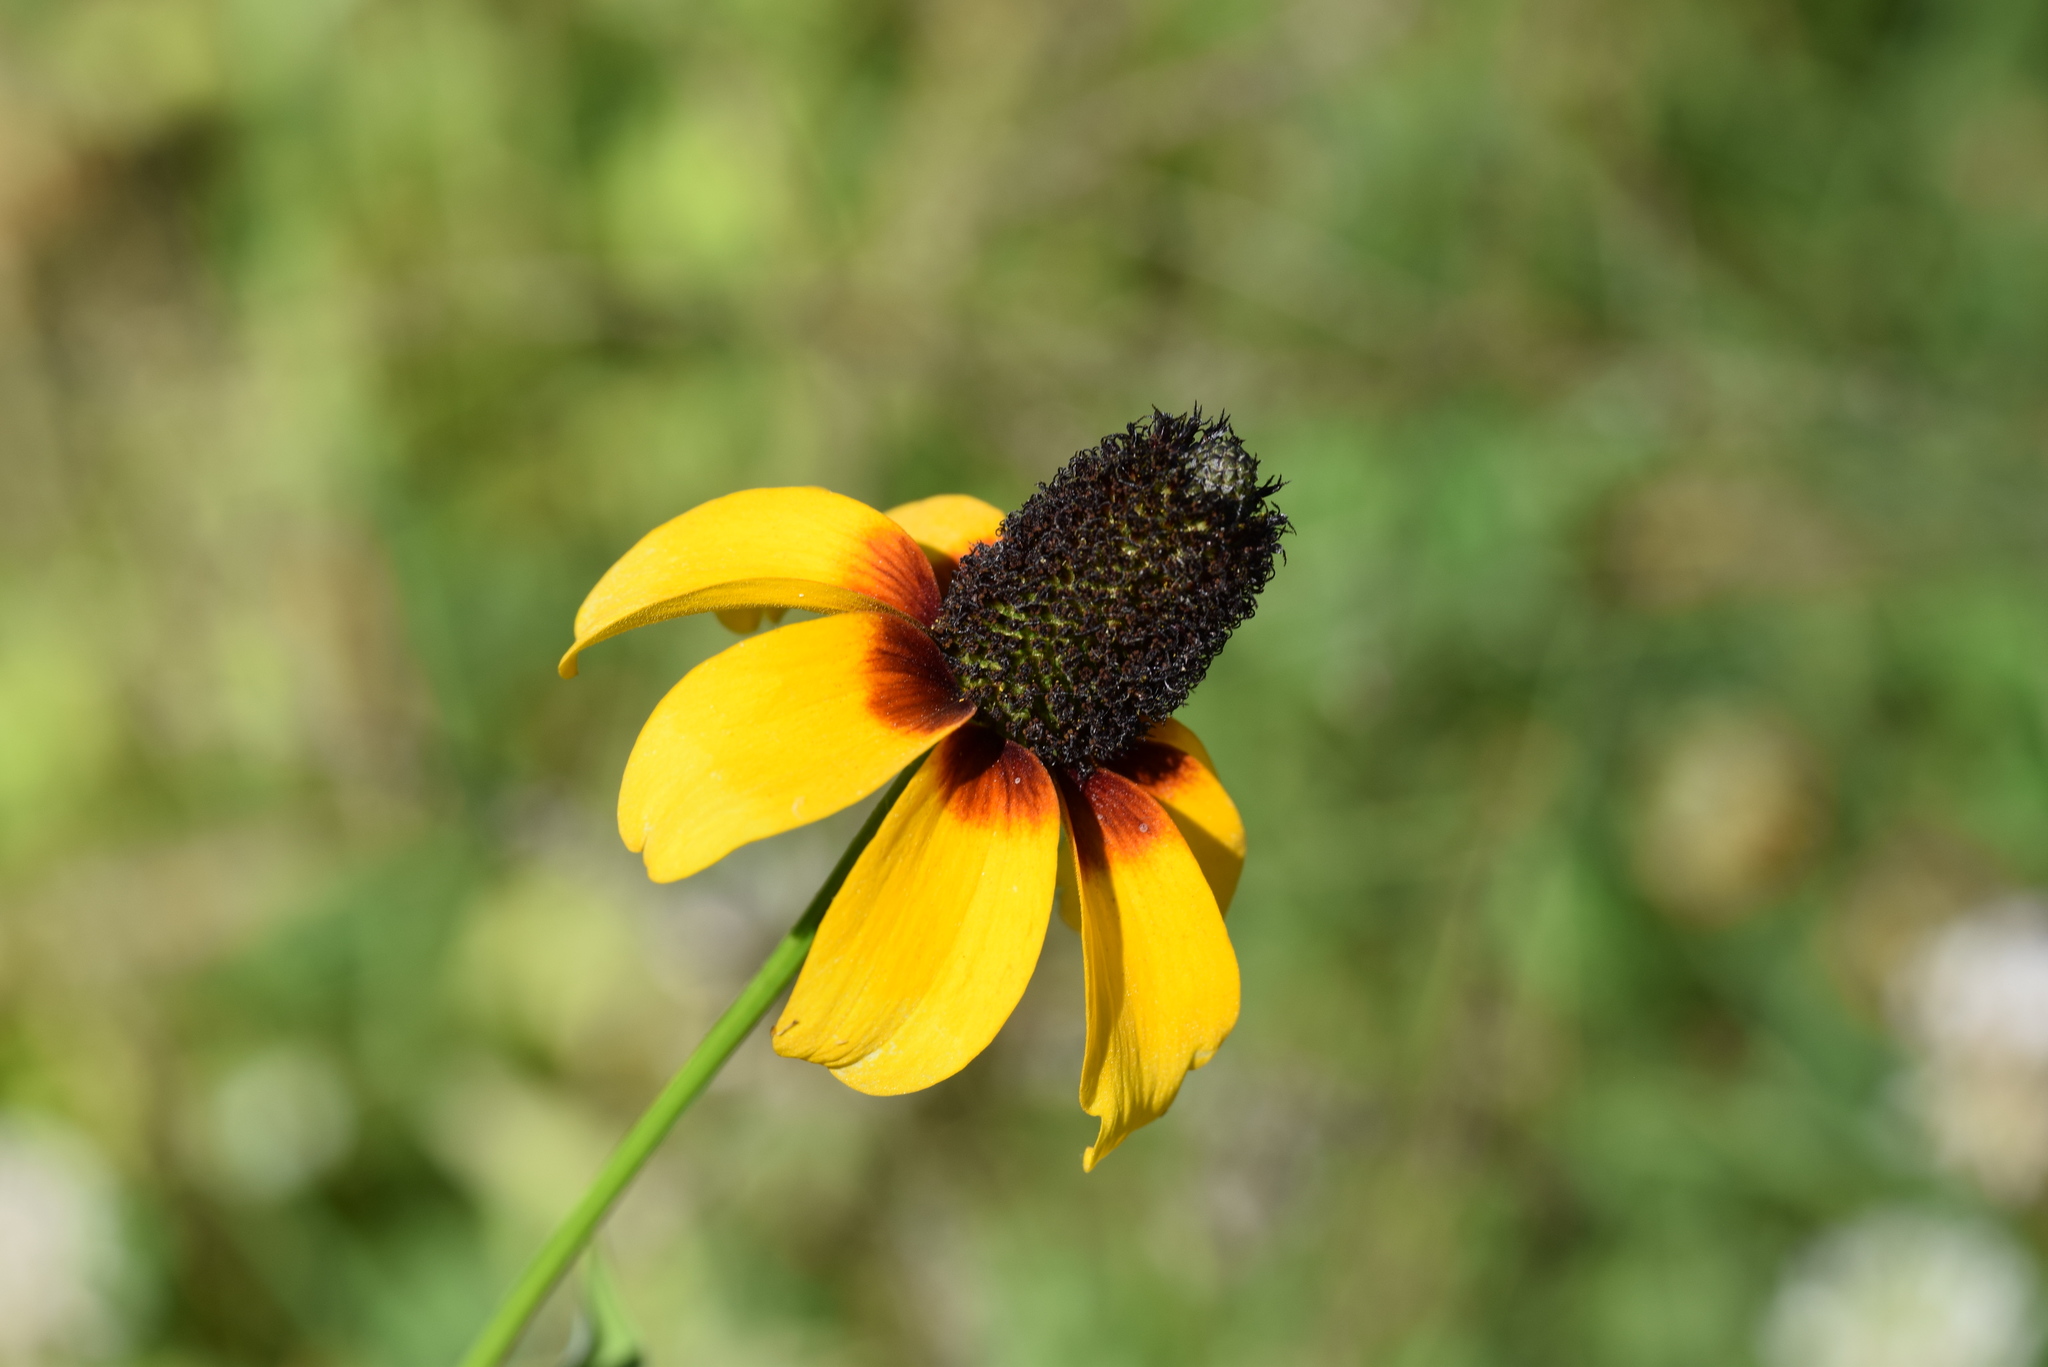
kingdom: Plantae
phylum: Tracheophyta
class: Magnoliopsida
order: Asterales
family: Asteraceae
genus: Rudbeckia
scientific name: Rudbeckia amplexicaulis
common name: Clasping-leaf coneflower
